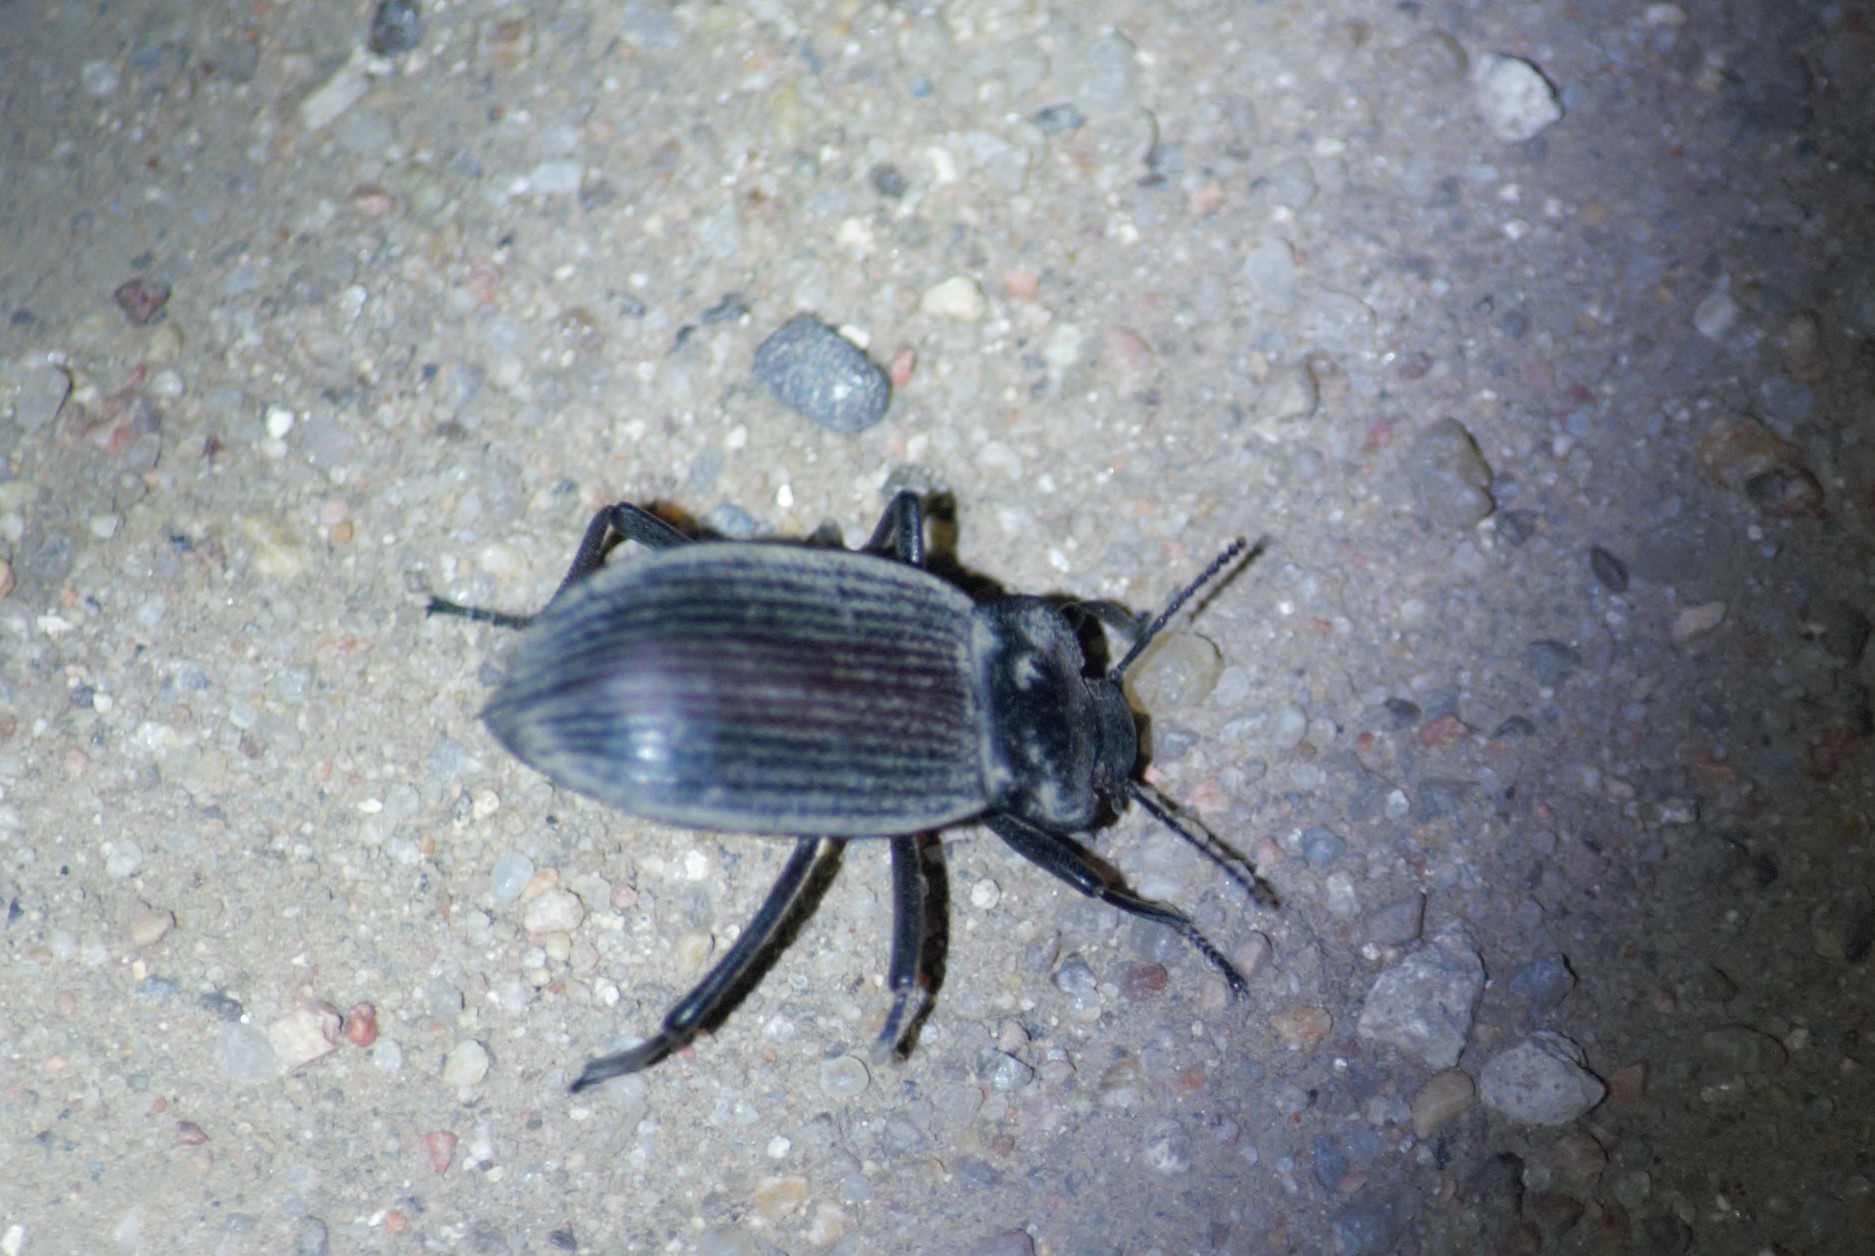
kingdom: Animalia
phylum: Arthropoda
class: Insecta
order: Coleoptera
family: Tenebrionidae
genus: Eleodes
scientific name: Eleodes suturalis
